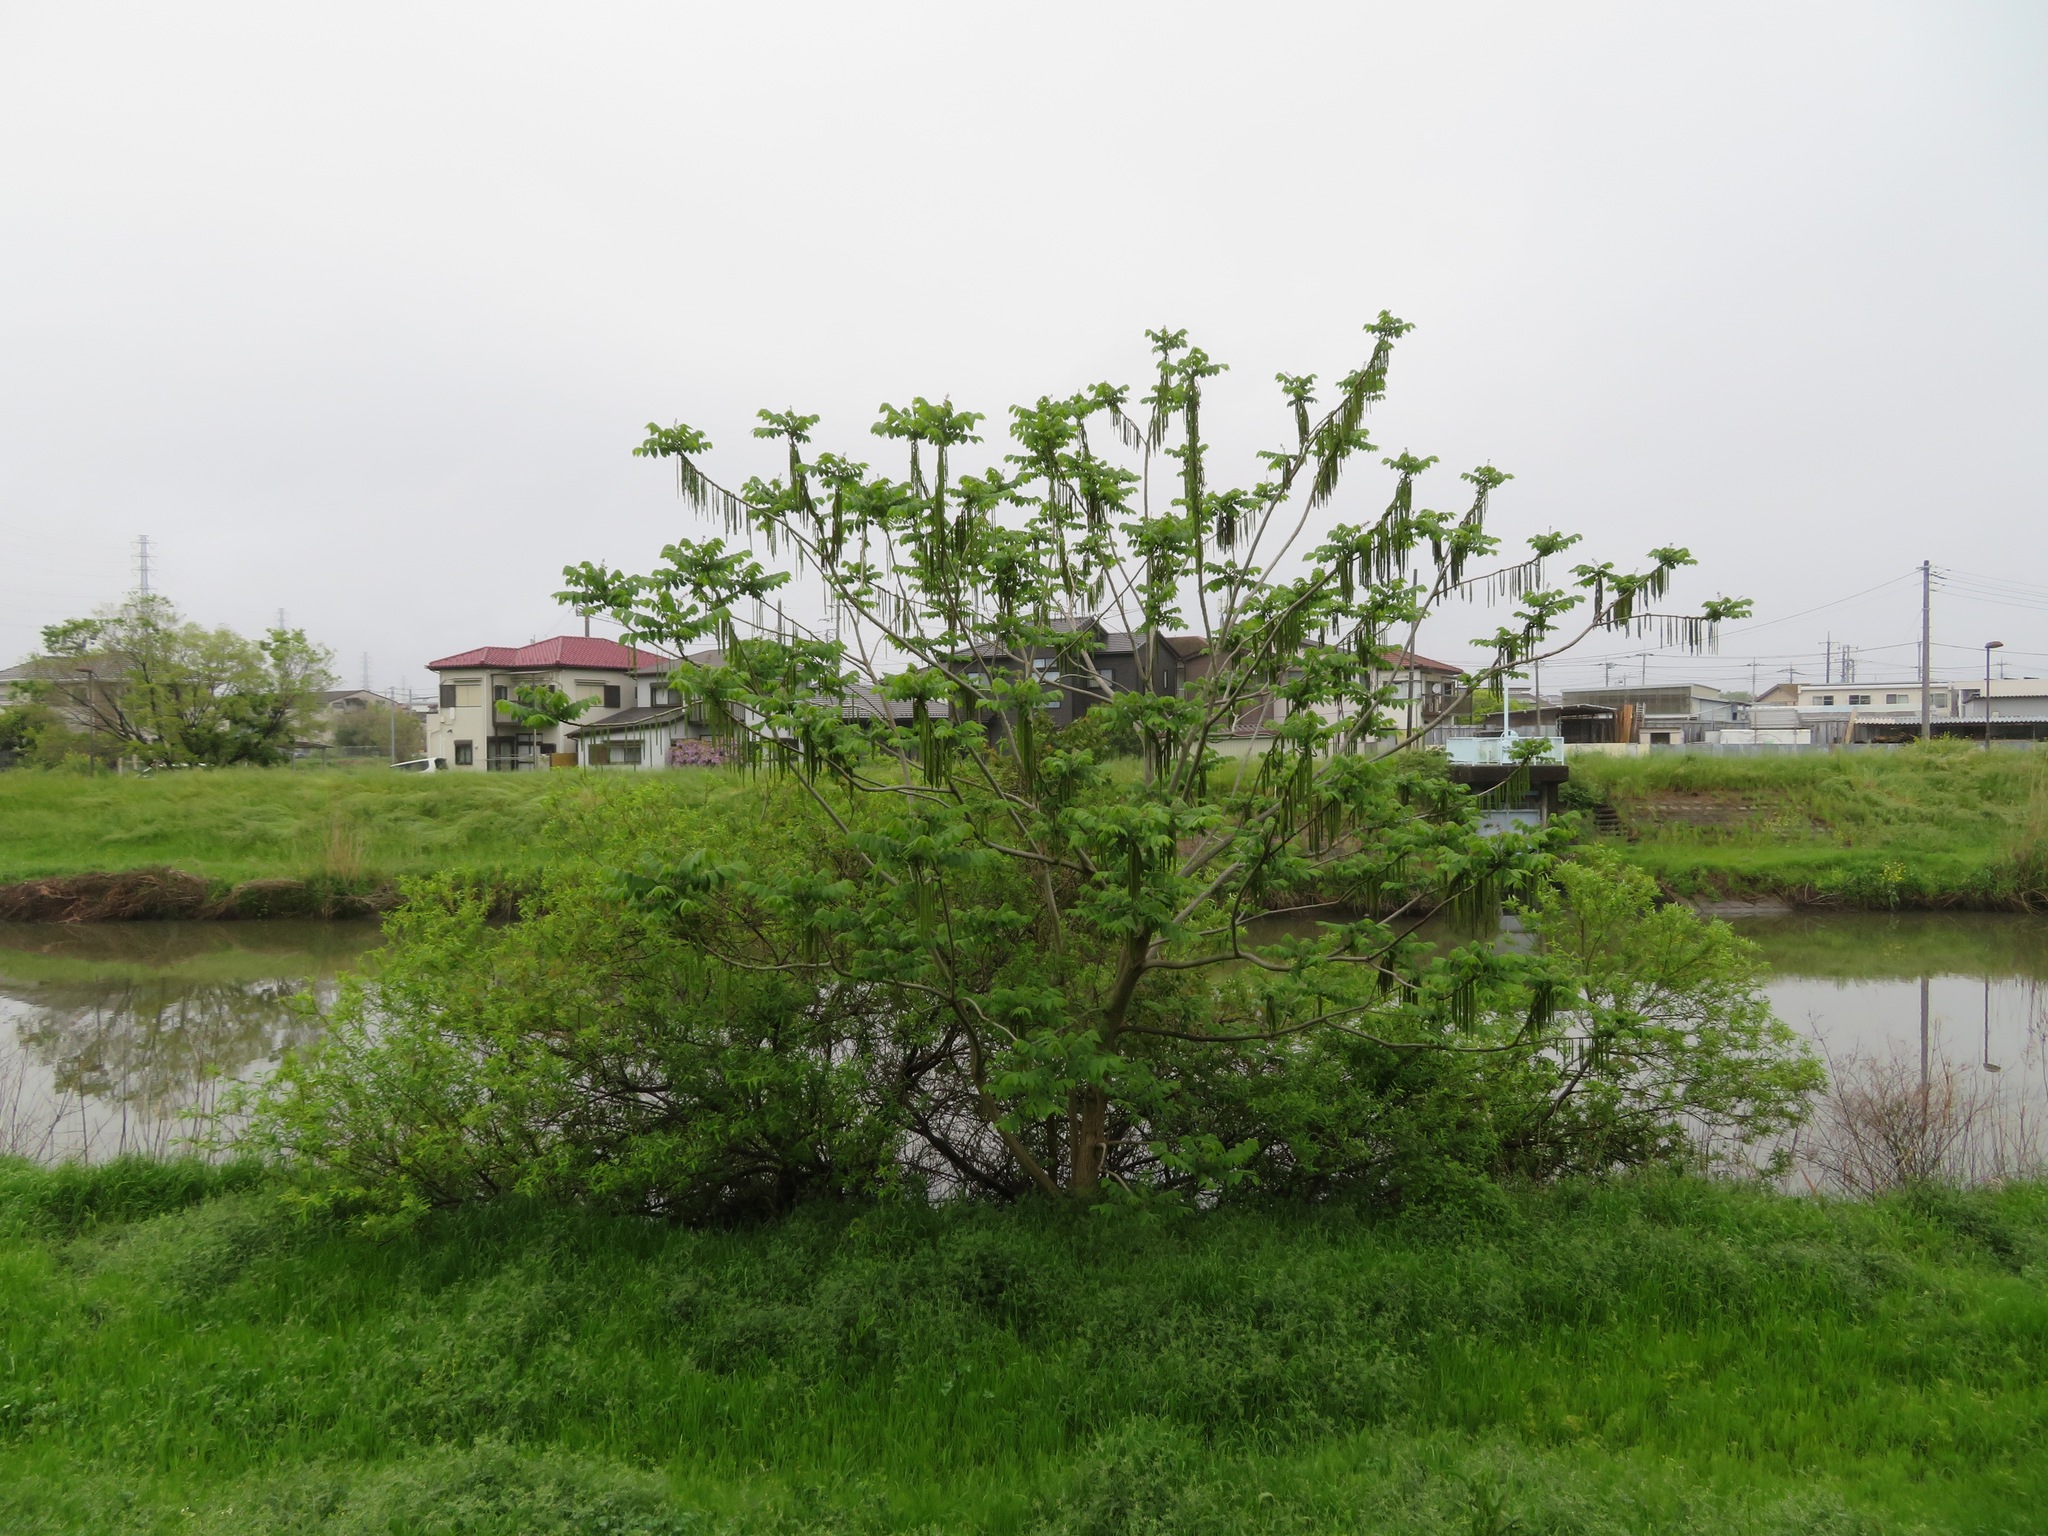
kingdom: Plantae
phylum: Tracheophyta
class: Magnoliopsida
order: Fagales
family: Juglandaceae
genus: Juglans
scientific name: Juglans ailantifolia
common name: Japanese walnut
